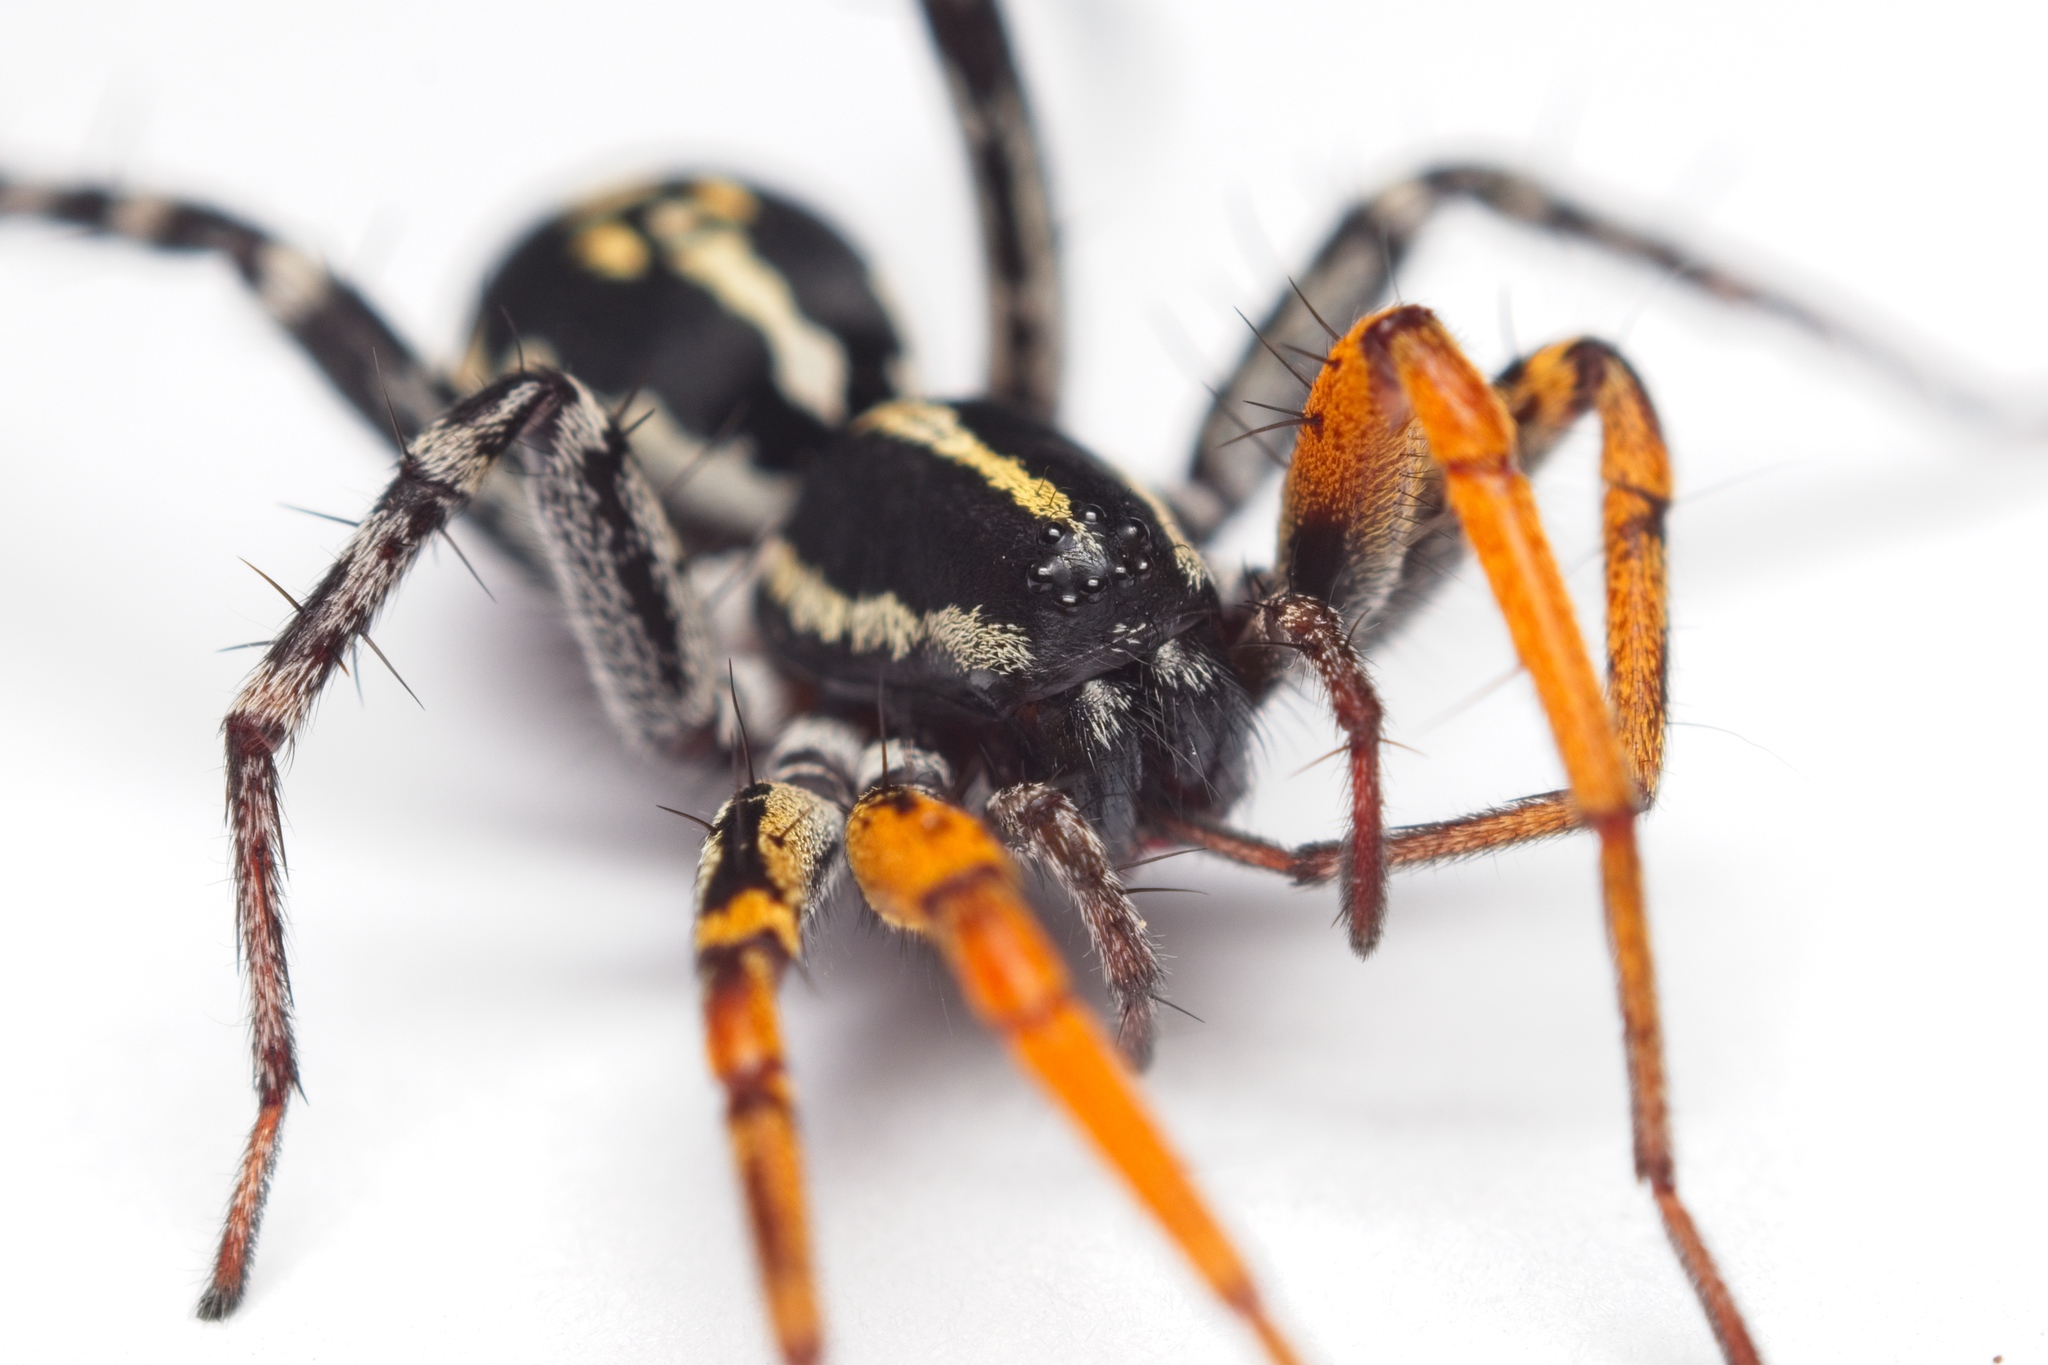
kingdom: Animalia
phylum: Arthropoda
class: Arachnida
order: Araneae
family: Corinnidae
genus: Nyssus
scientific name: Nyssus coloripes
